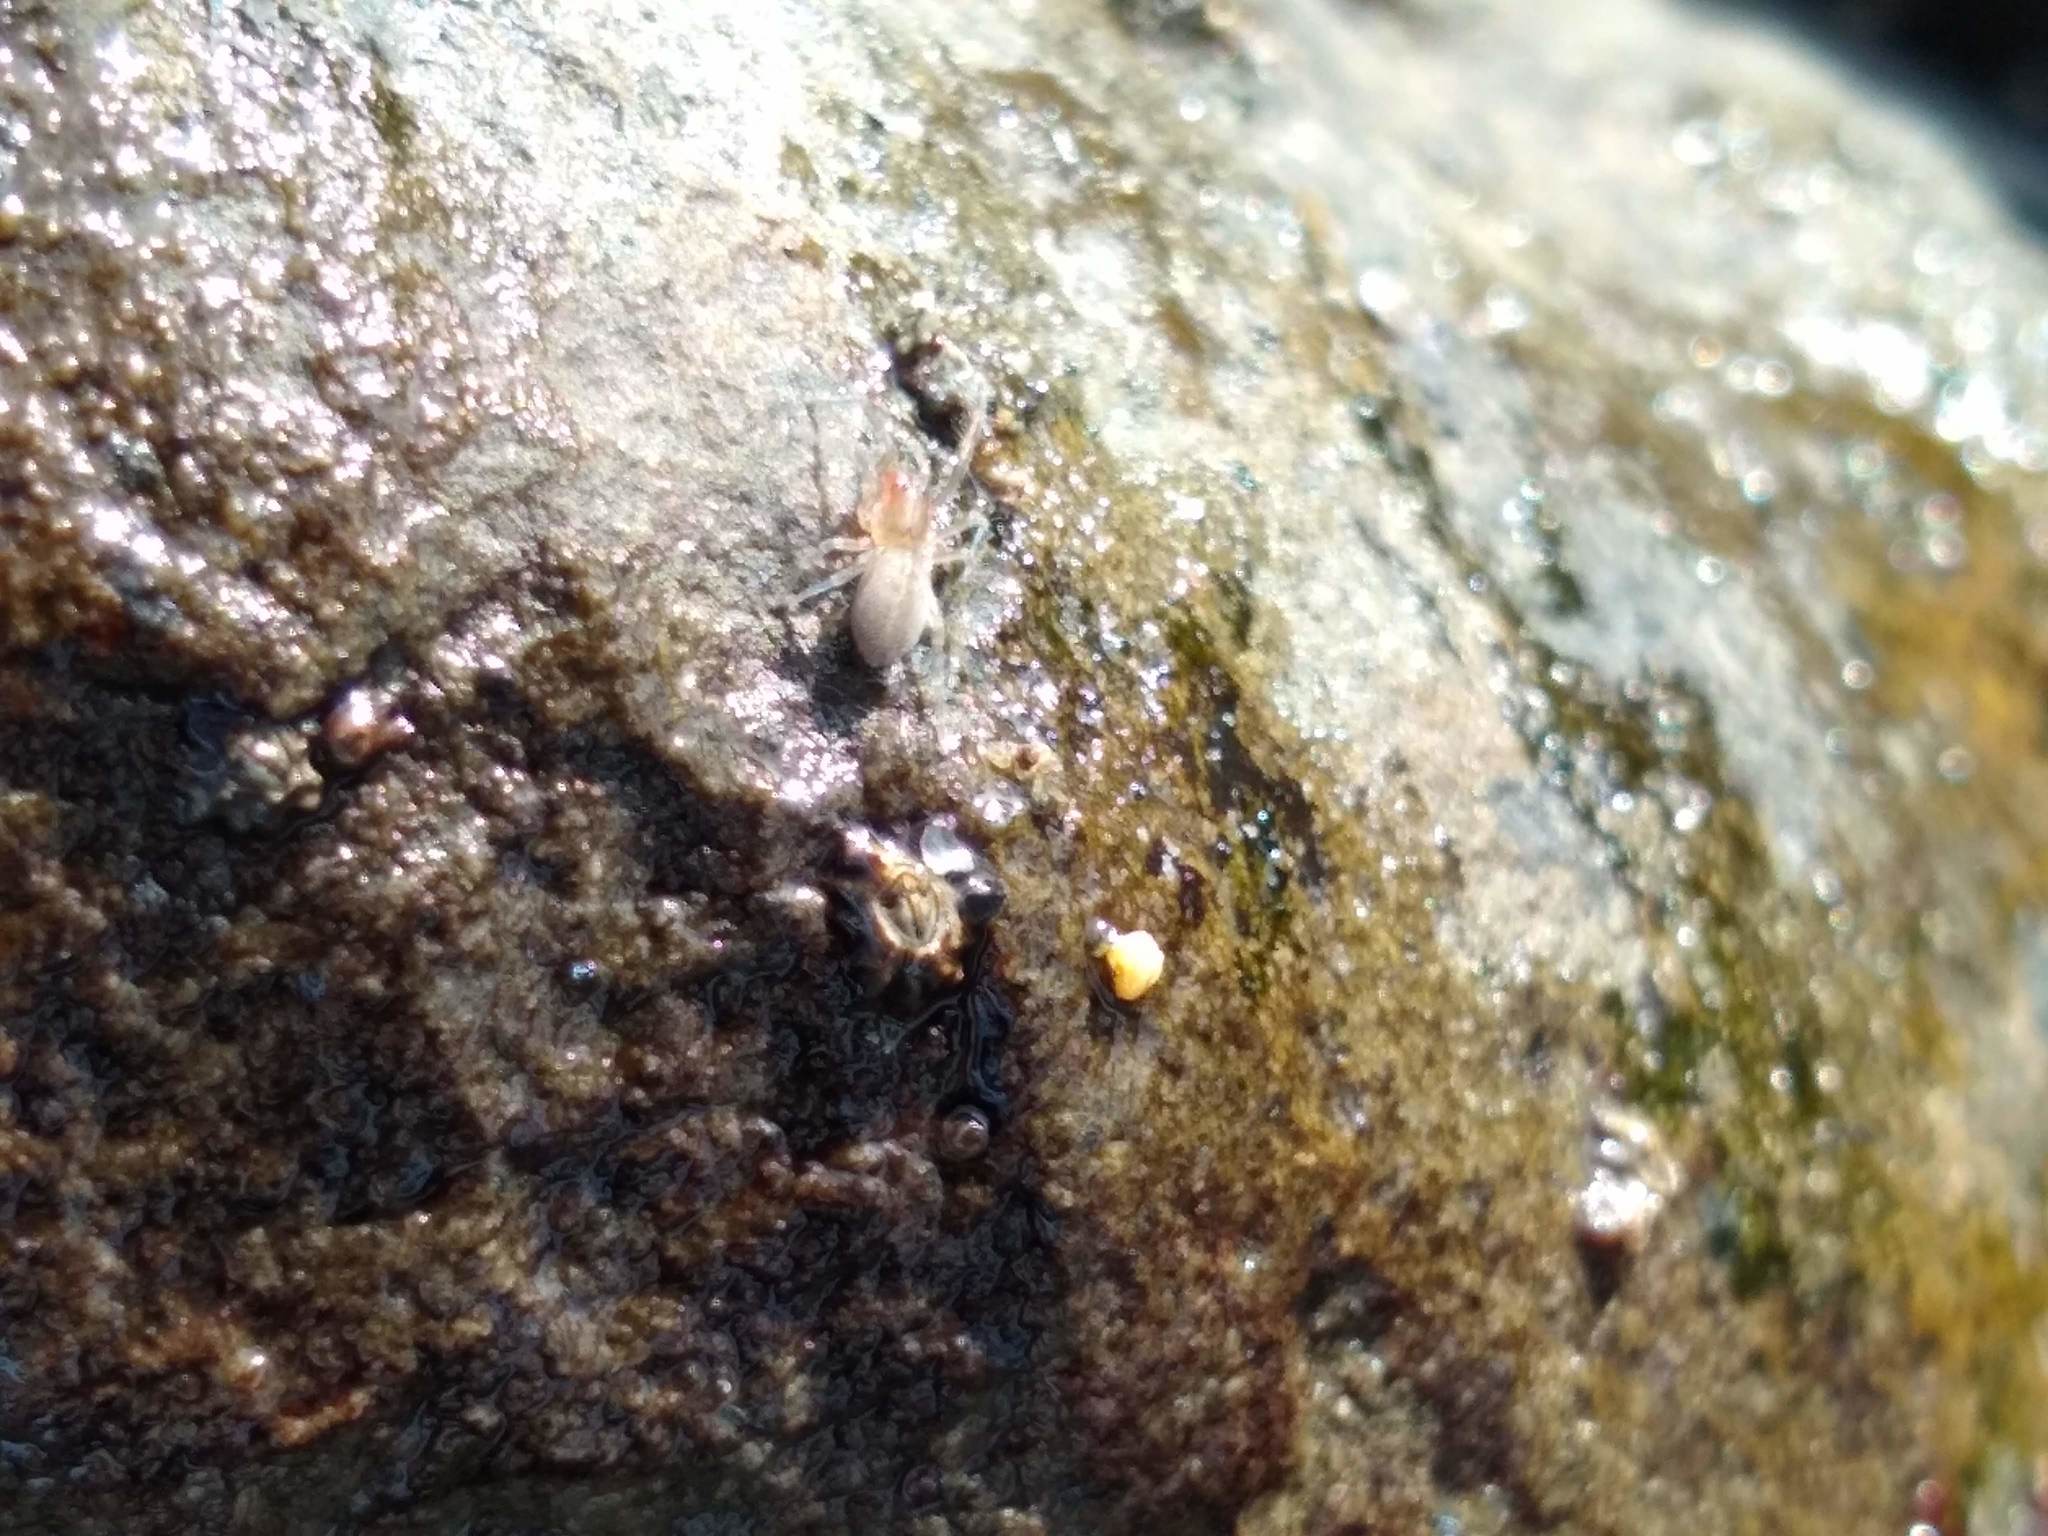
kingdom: Animalia
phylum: Arthropoda
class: Arachnida
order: Araneae
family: Desidae
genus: Desis
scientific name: Desis marina
